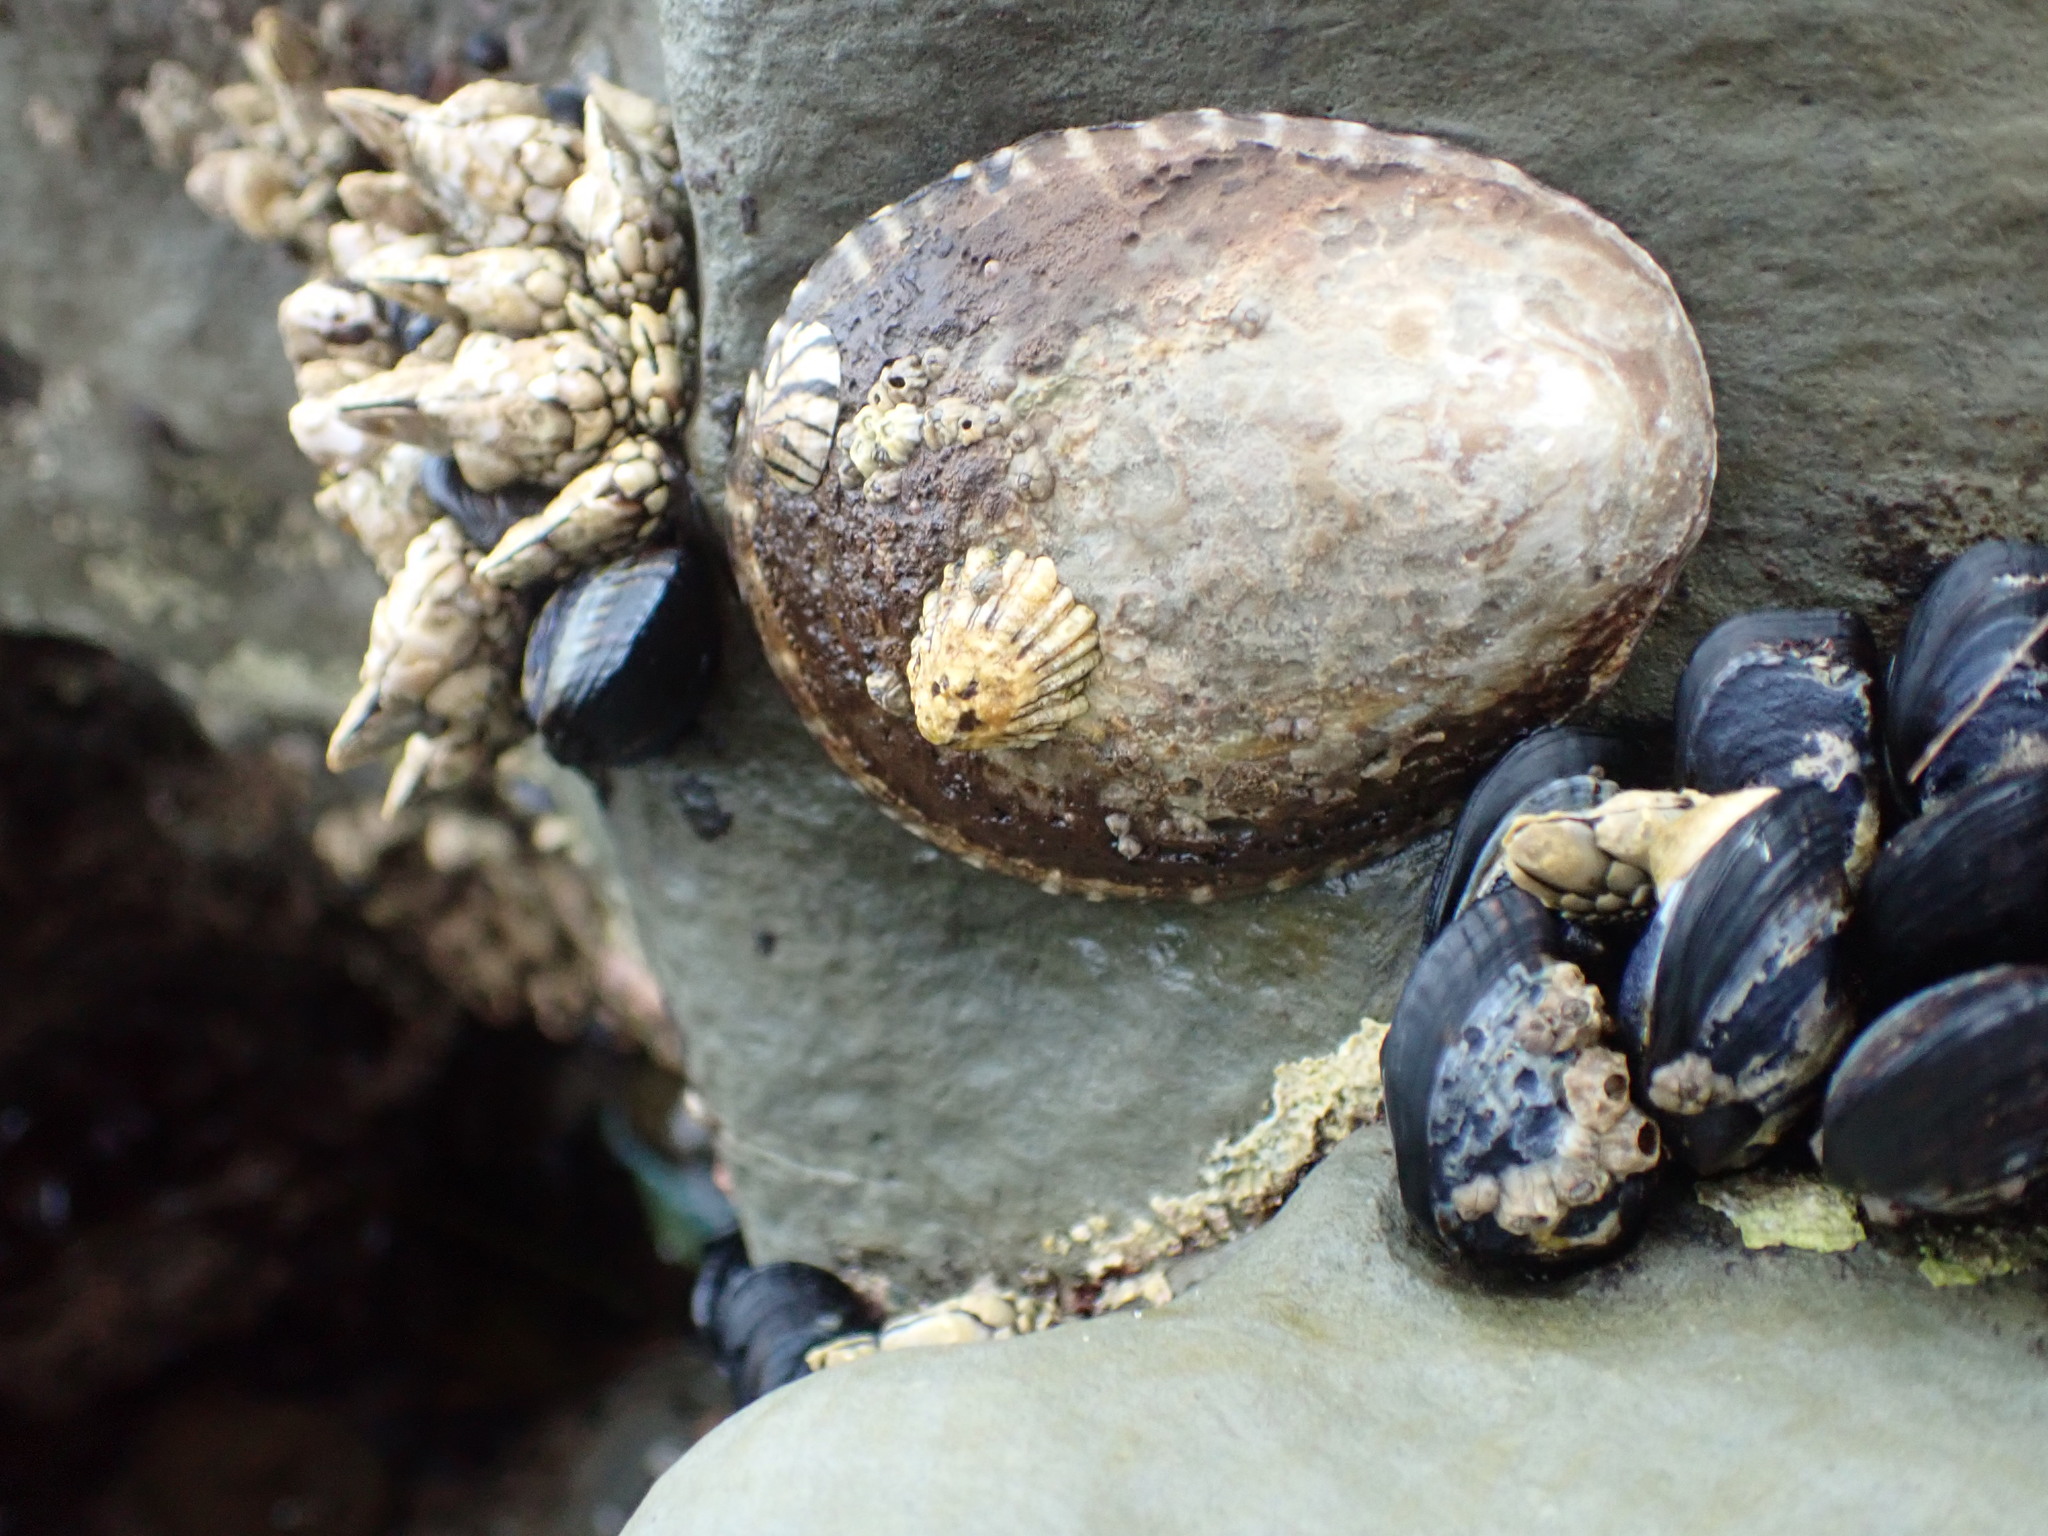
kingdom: Animalia
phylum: Mollusca
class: Gastropoda
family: Lottiidae
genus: Lottia
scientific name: Lottia gigantea
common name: Owl limpet
